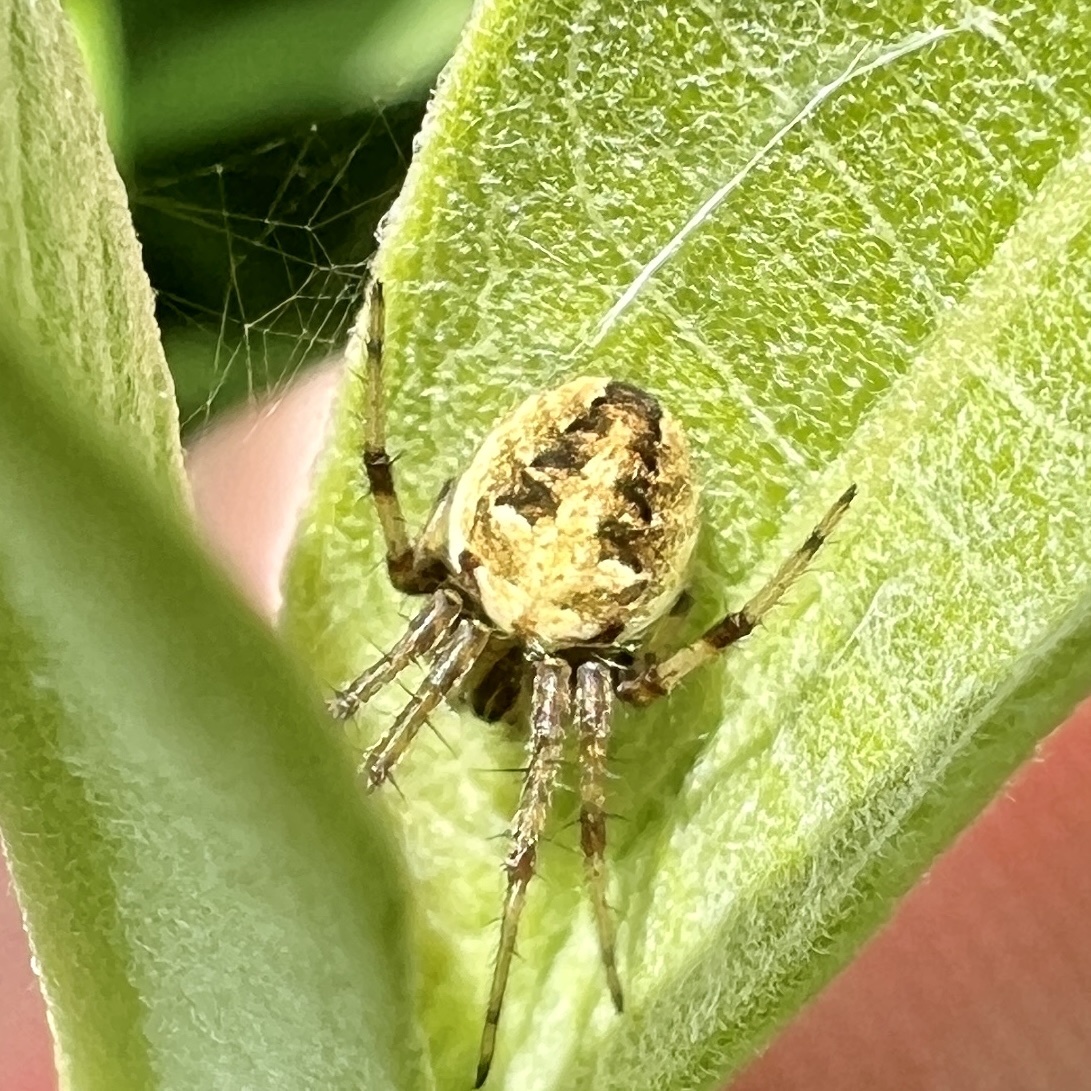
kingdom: Animalia
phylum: Arthropoda
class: Arachnida
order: Araneae
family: Araneidae
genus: Neoscona
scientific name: Neoscona arabesca
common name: Orb weavers
